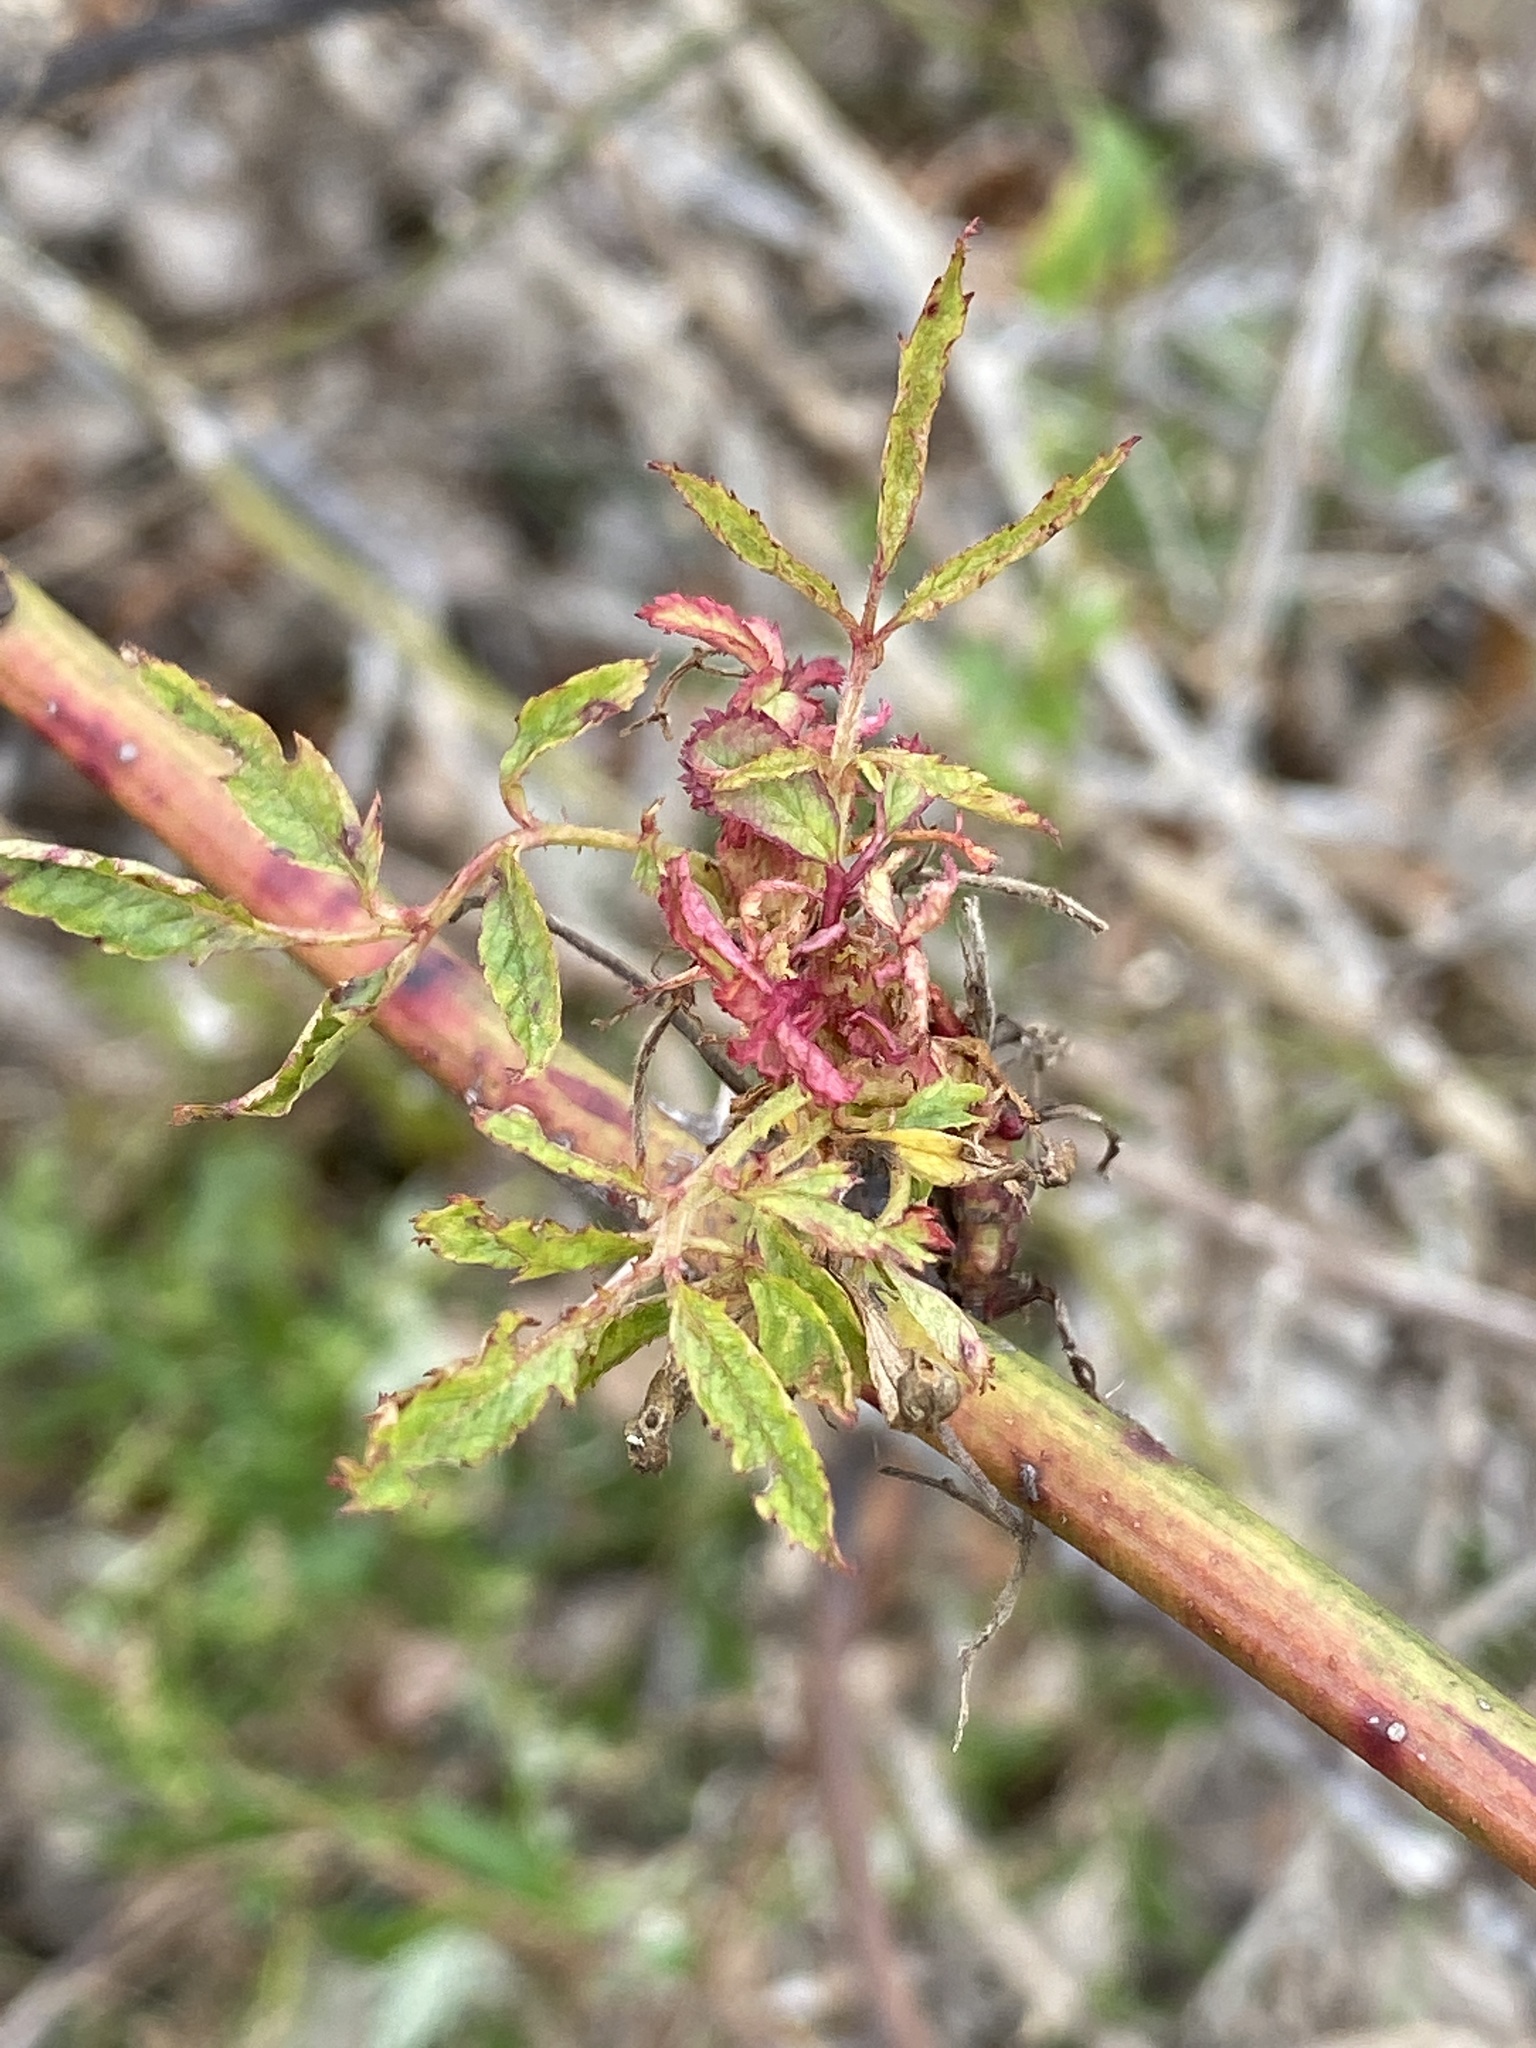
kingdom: Viruses
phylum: Negarnaviricota
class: Ellioviricetes
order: Bunyavirales
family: Fimoviridae
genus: Emaravirus
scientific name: Emaravirus rosae
